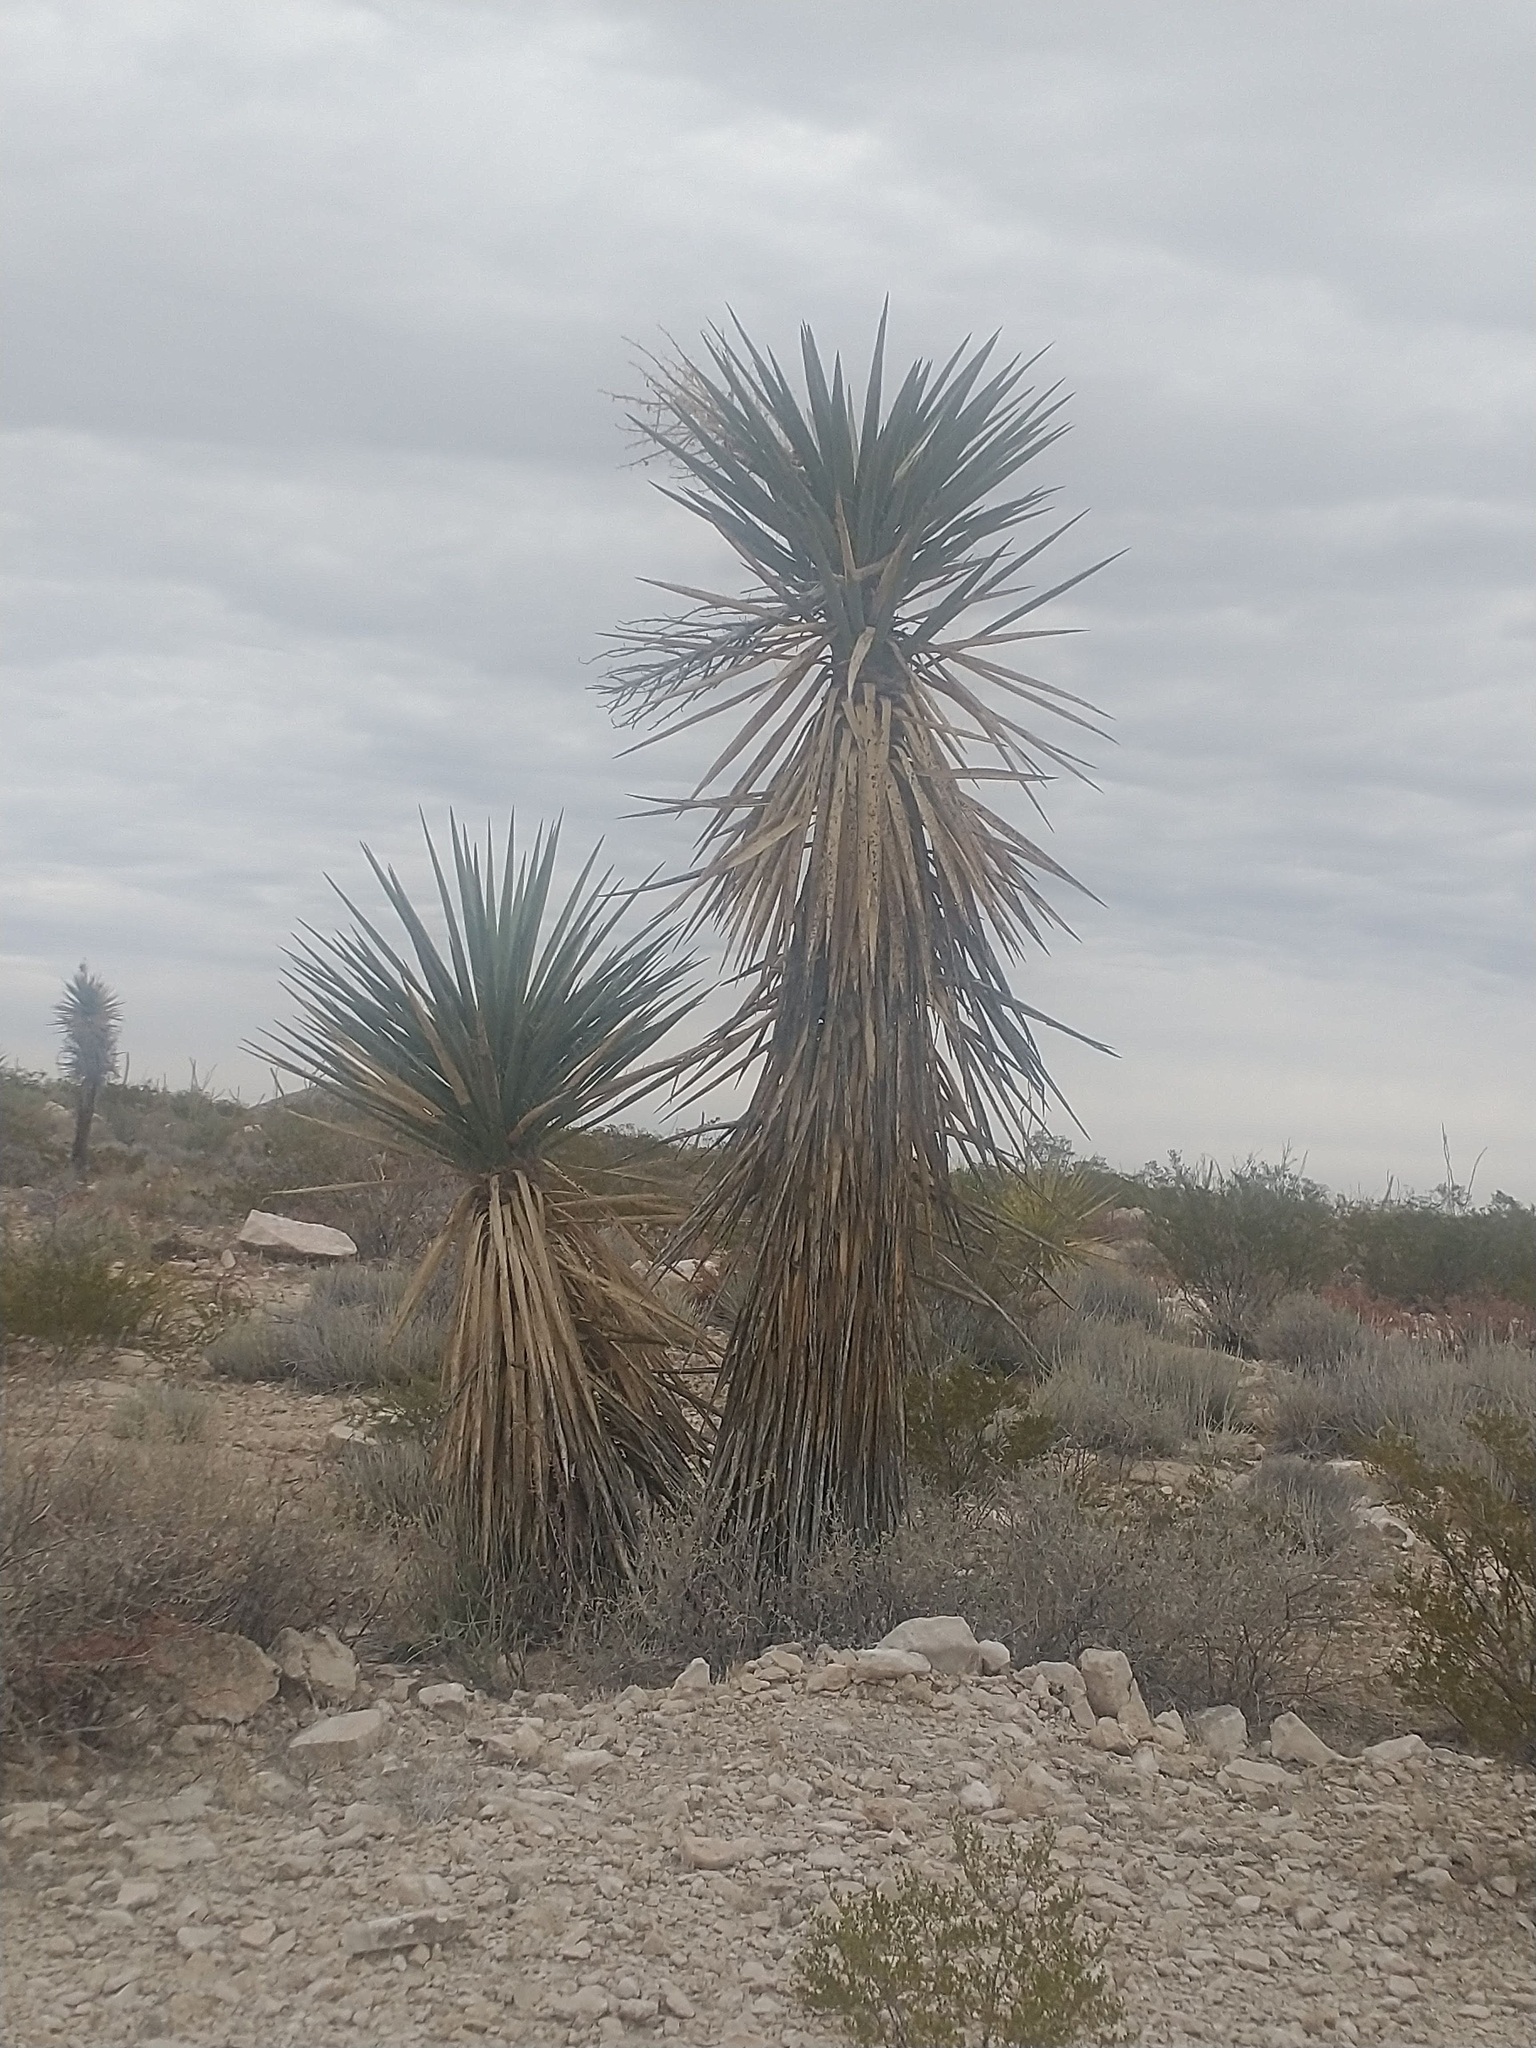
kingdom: Plantae
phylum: Tracheophyta
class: Liliopsida
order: Asparagales
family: Asparagaceae
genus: Yucca
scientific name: Yucca treculiana
